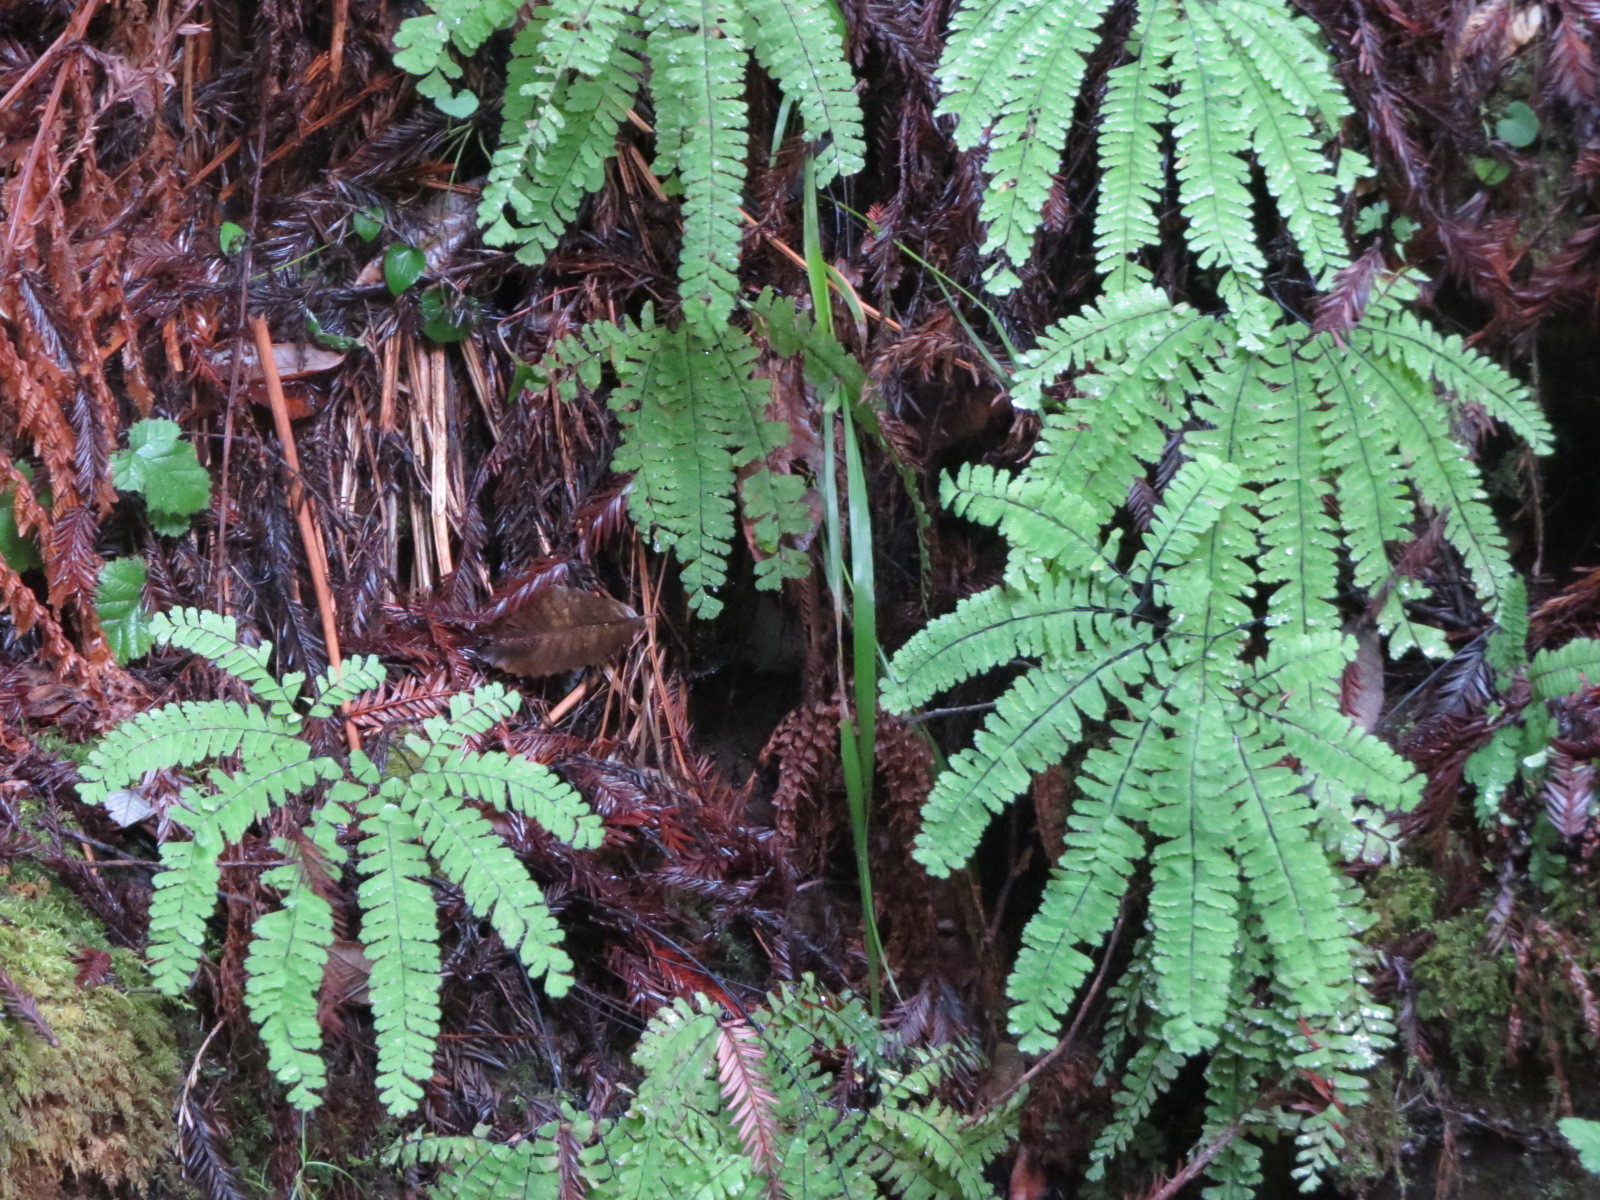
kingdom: Plantae
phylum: Tracheophyta
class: Polypodiopsida
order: Polypodiales
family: Pteridaceae
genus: Adiantum
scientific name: Adiantum aleuticum
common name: Aleutian maidenhair fern
